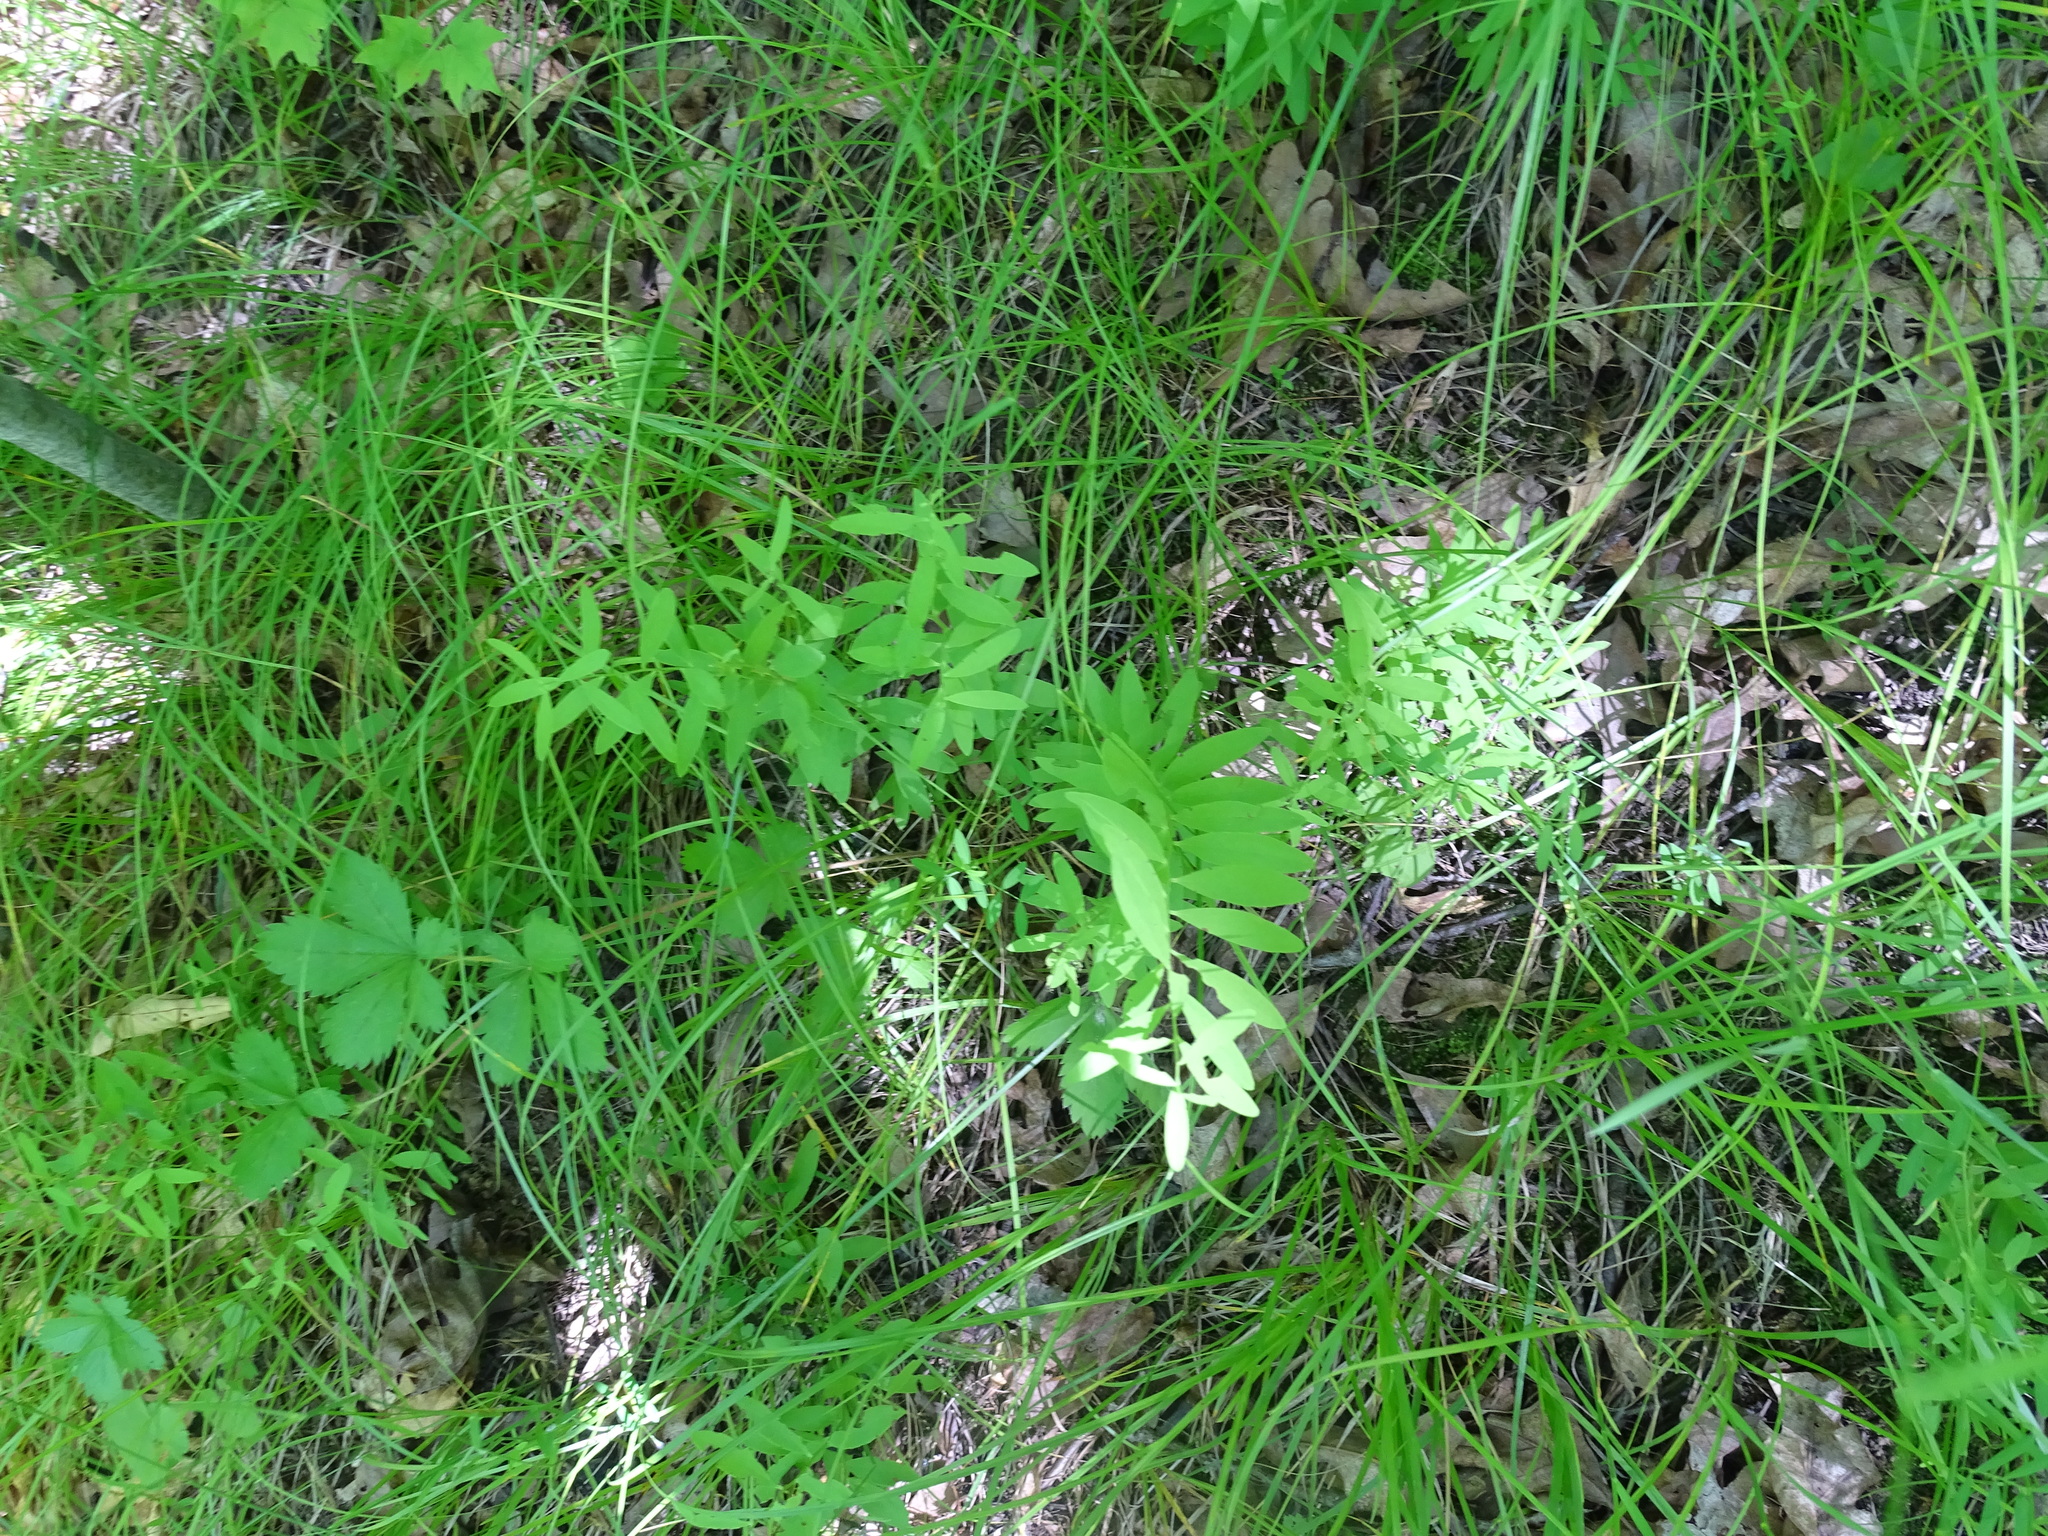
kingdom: Plantae
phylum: Tracheophyta
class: Magnoliopsida
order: Santalales
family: Comandraceae
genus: Comandra
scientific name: Comandra umbellata
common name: Bastard toadflax
